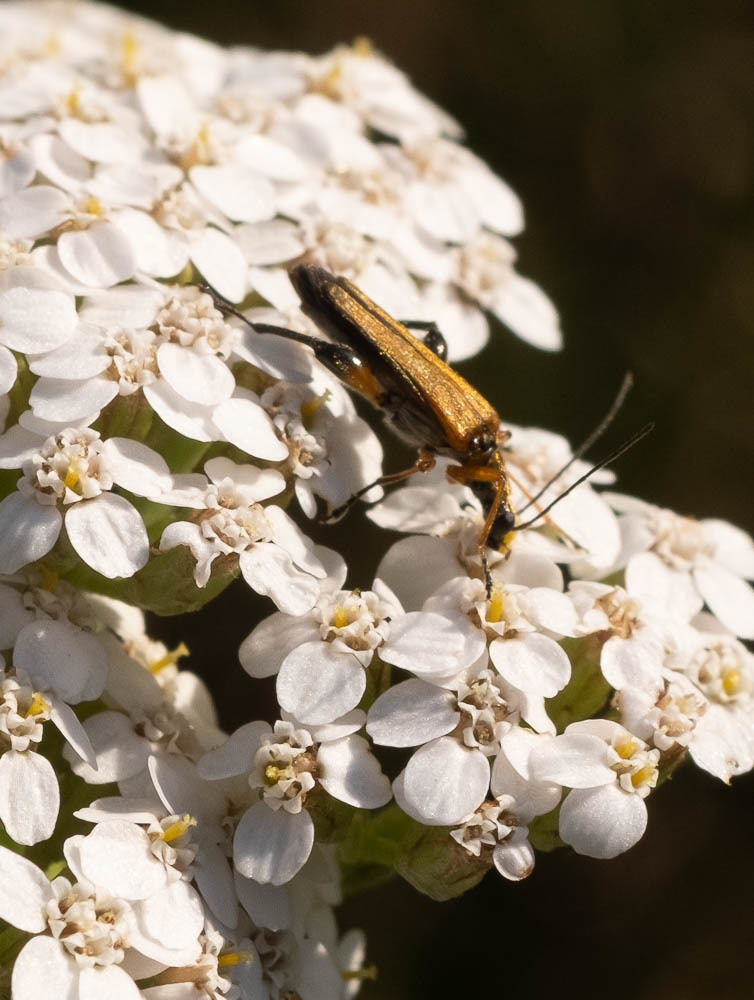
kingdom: Animalia
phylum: Arthropoda
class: Insecta
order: Coleoptera
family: Oedemeridae
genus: Oedemera
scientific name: Oedemera podagrariae
